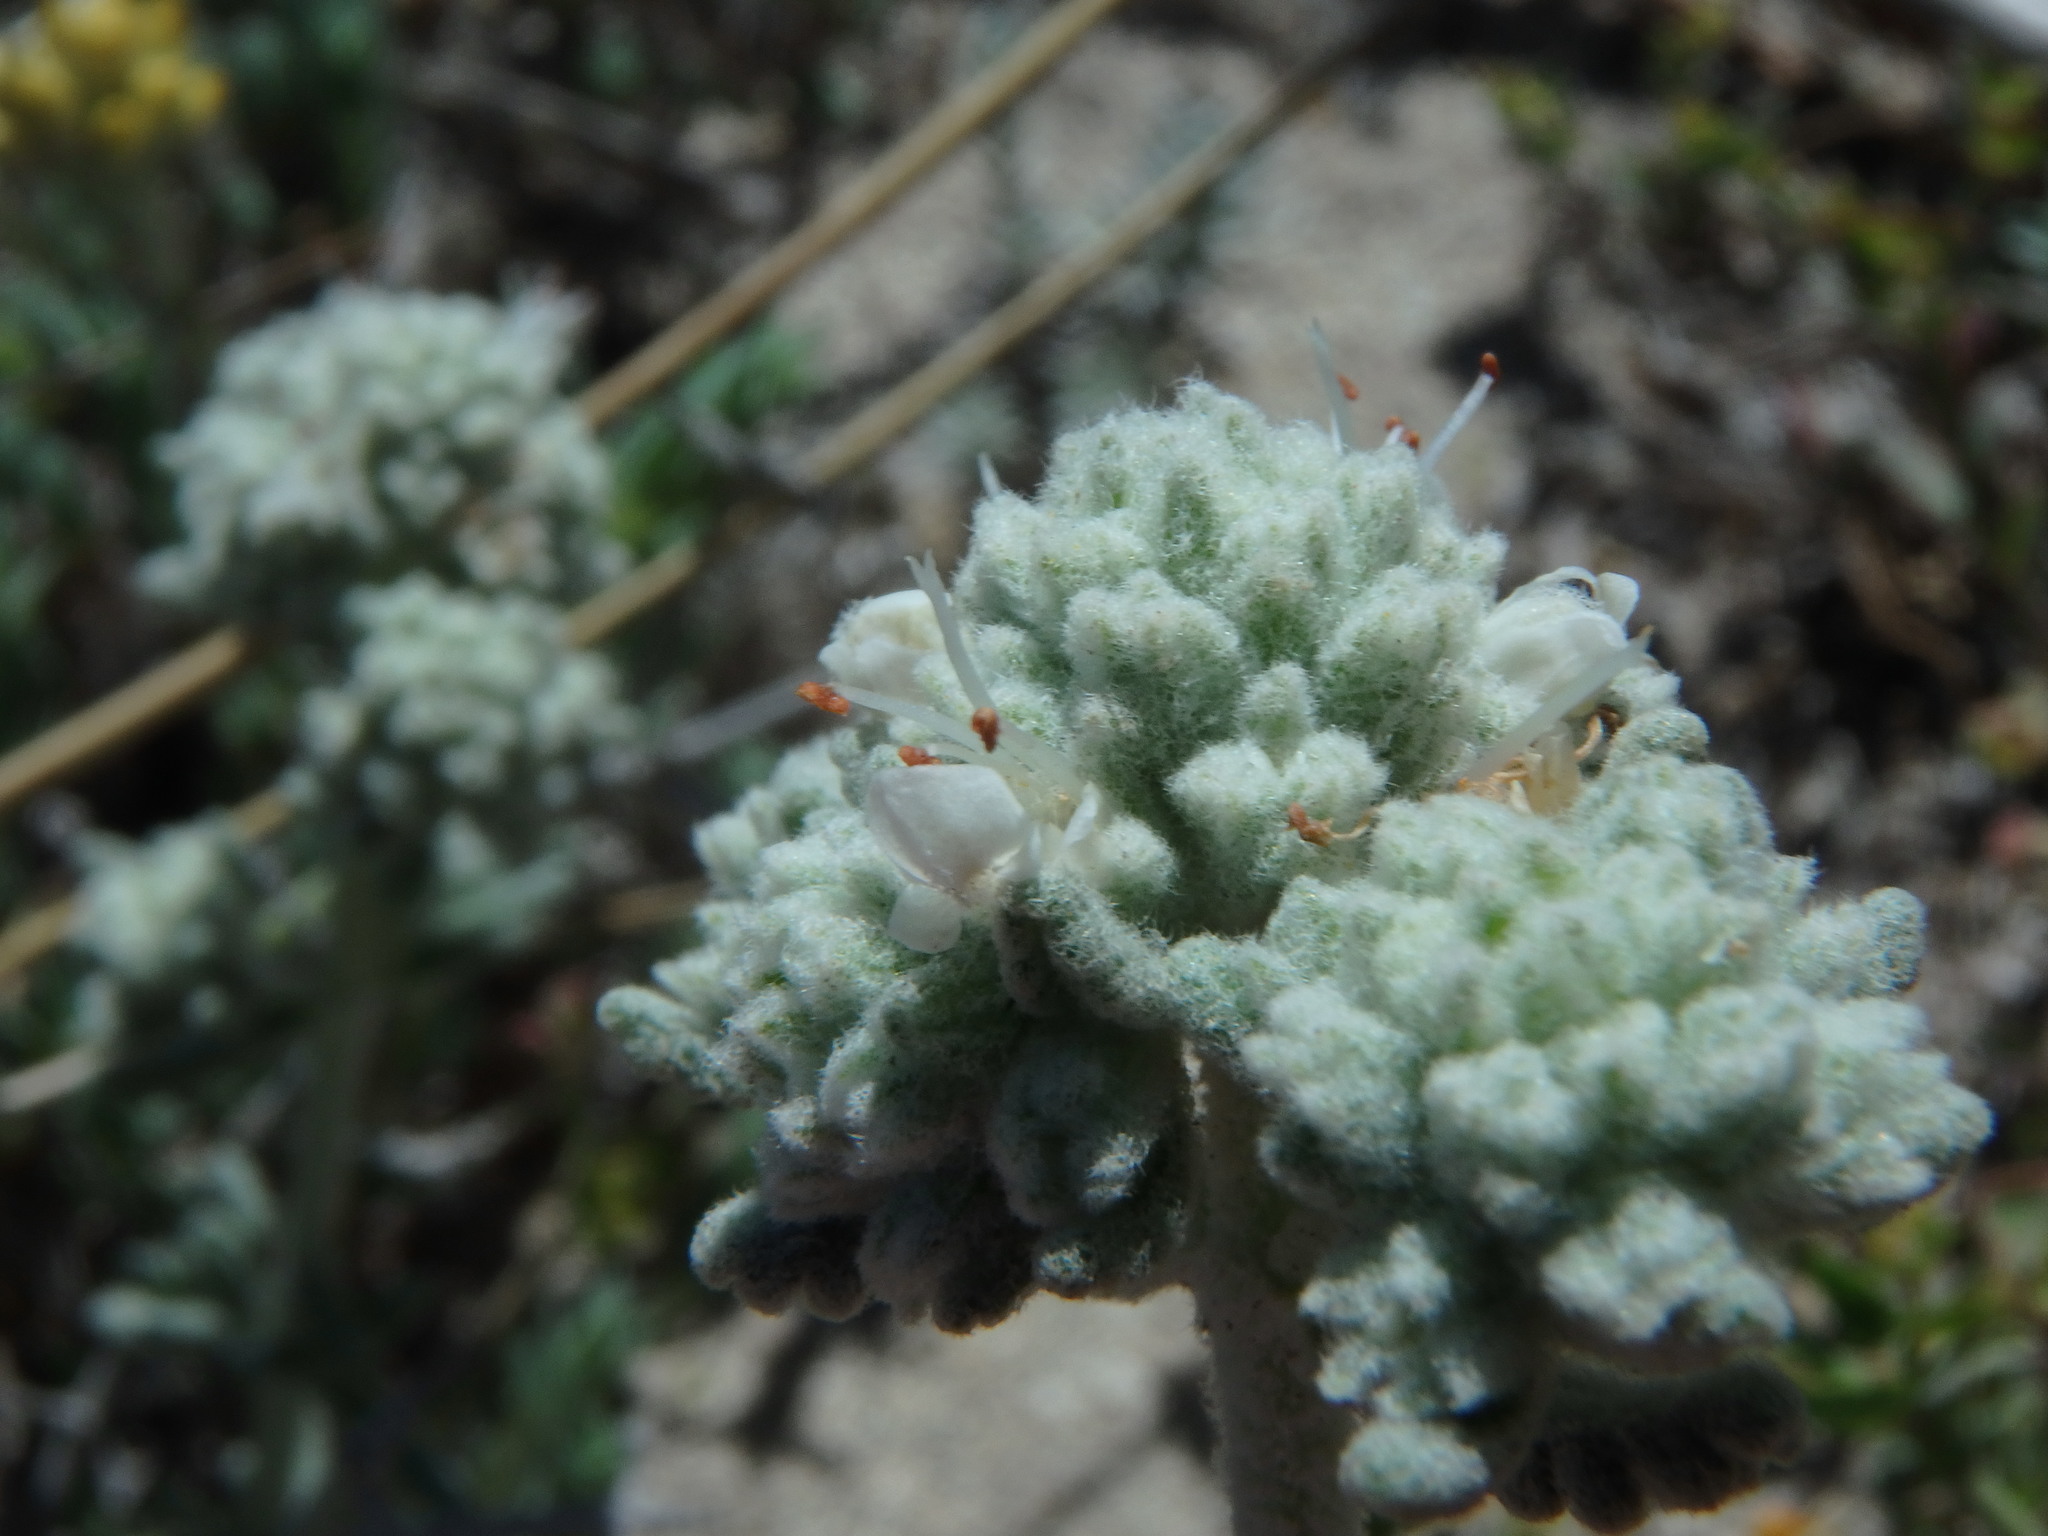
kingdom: Plantae
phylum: Tracheophyta
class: Magnoliopsida
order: Lamiales
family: Lamiaceae
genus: Teucrium
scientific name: Teucrium dunense
